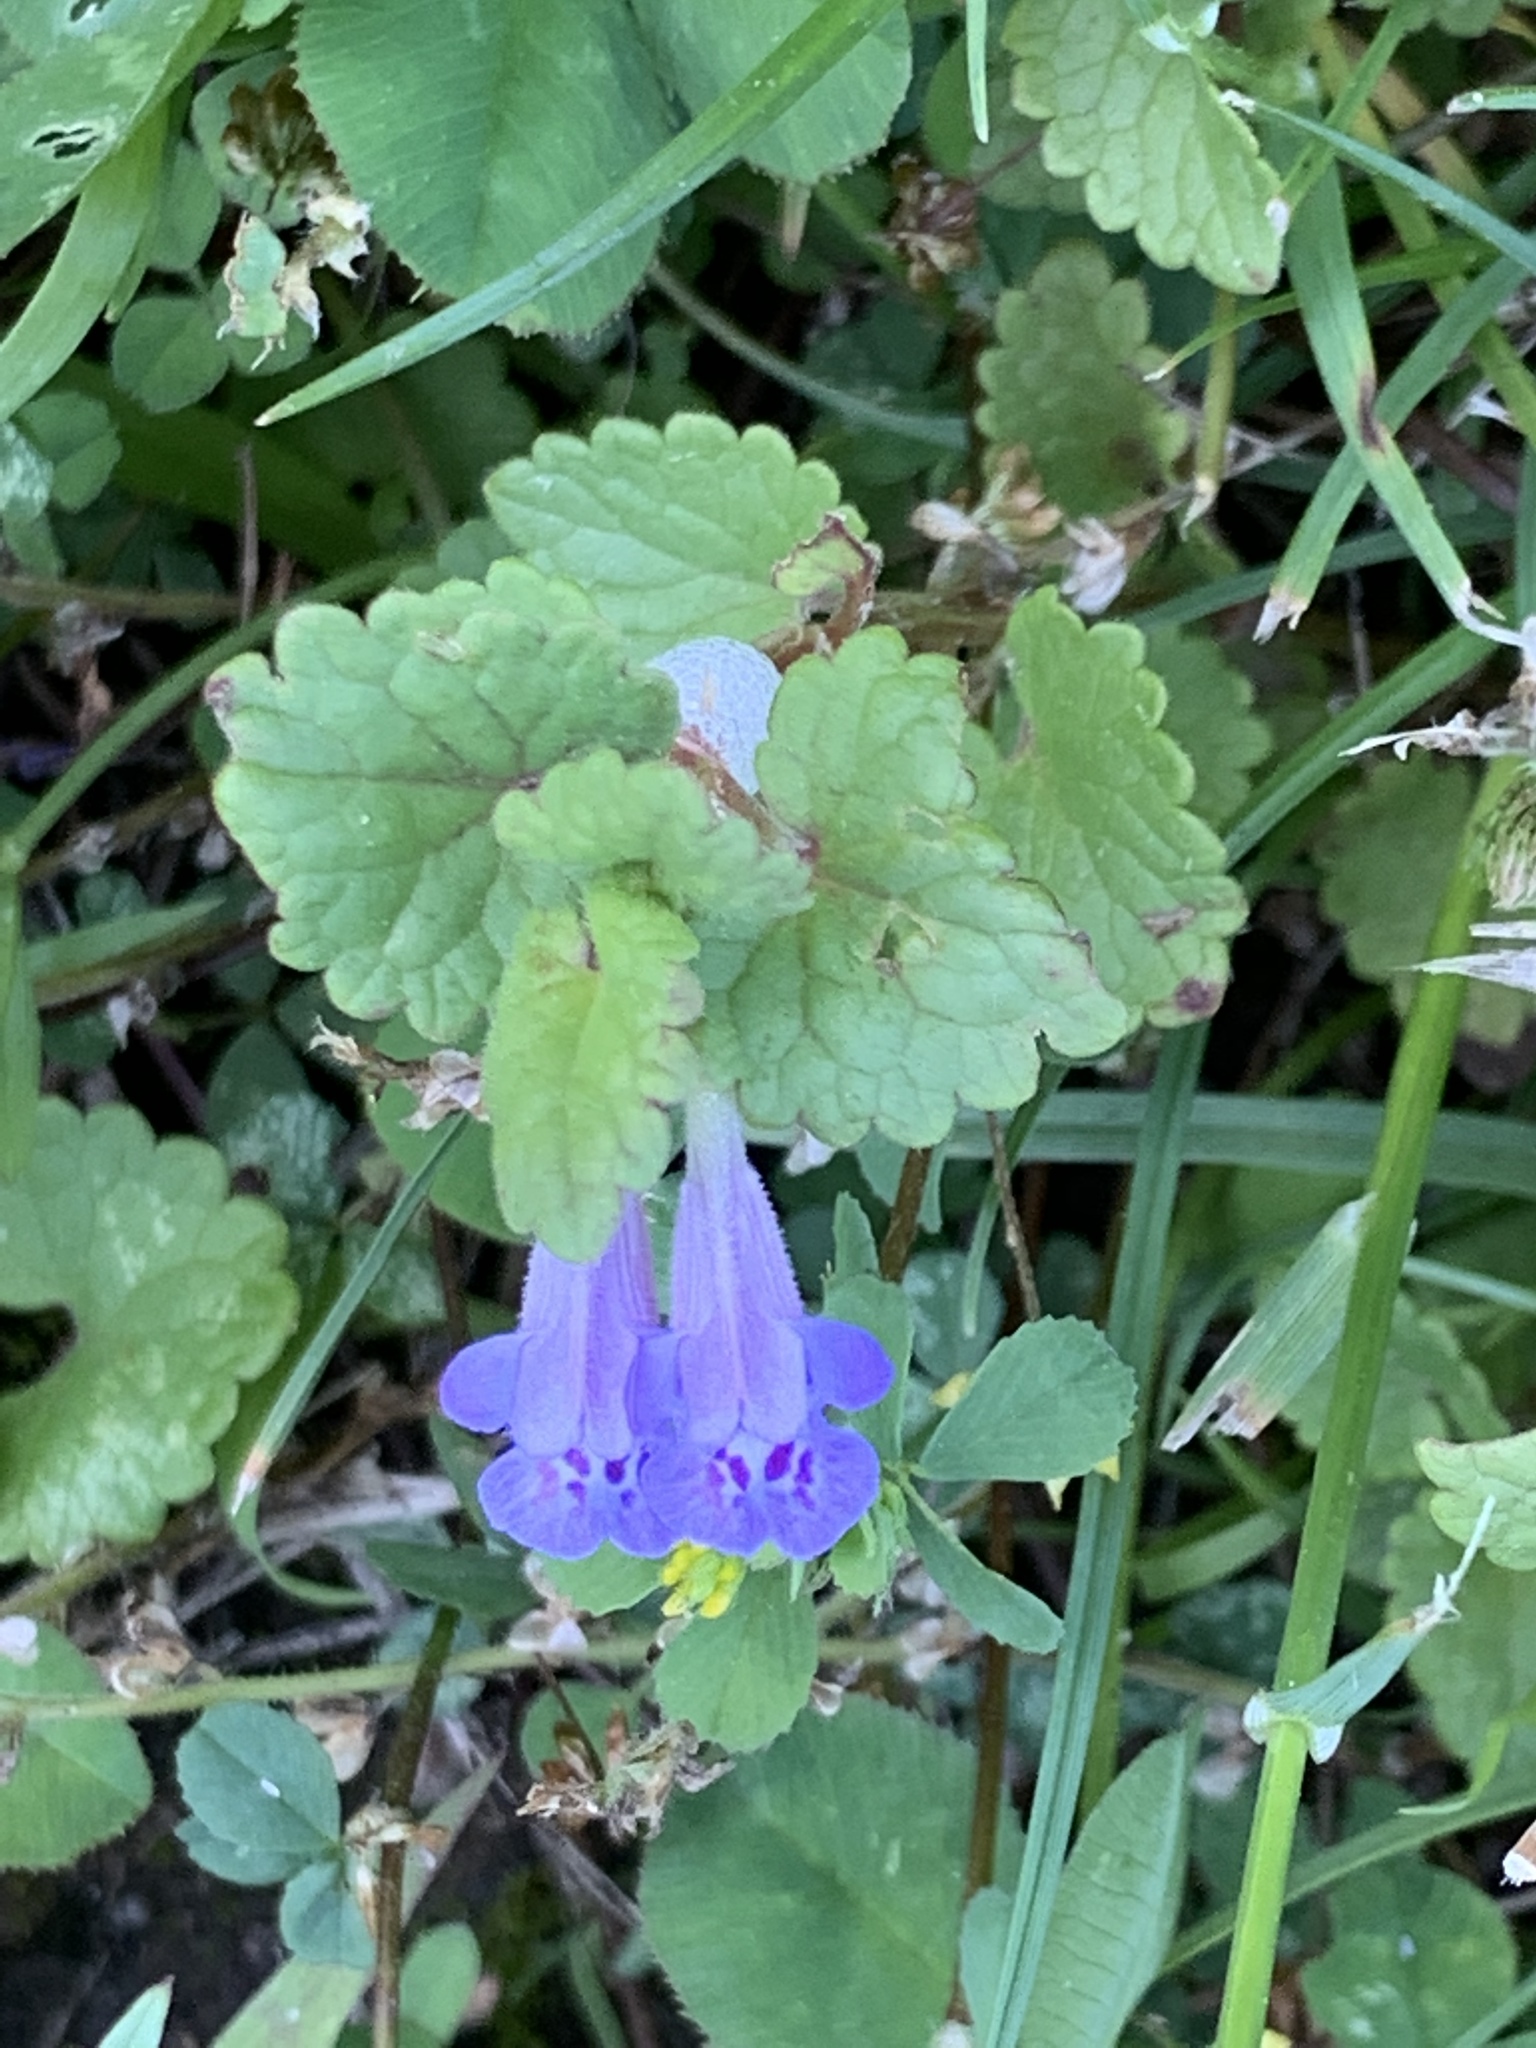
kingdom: Plantae
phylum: Tracheophyta
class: Magnoliopsida
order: Lamiales
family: Lamiaceae
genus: Glechoma
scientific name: Glechoma hederacea
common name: Ground ivy
